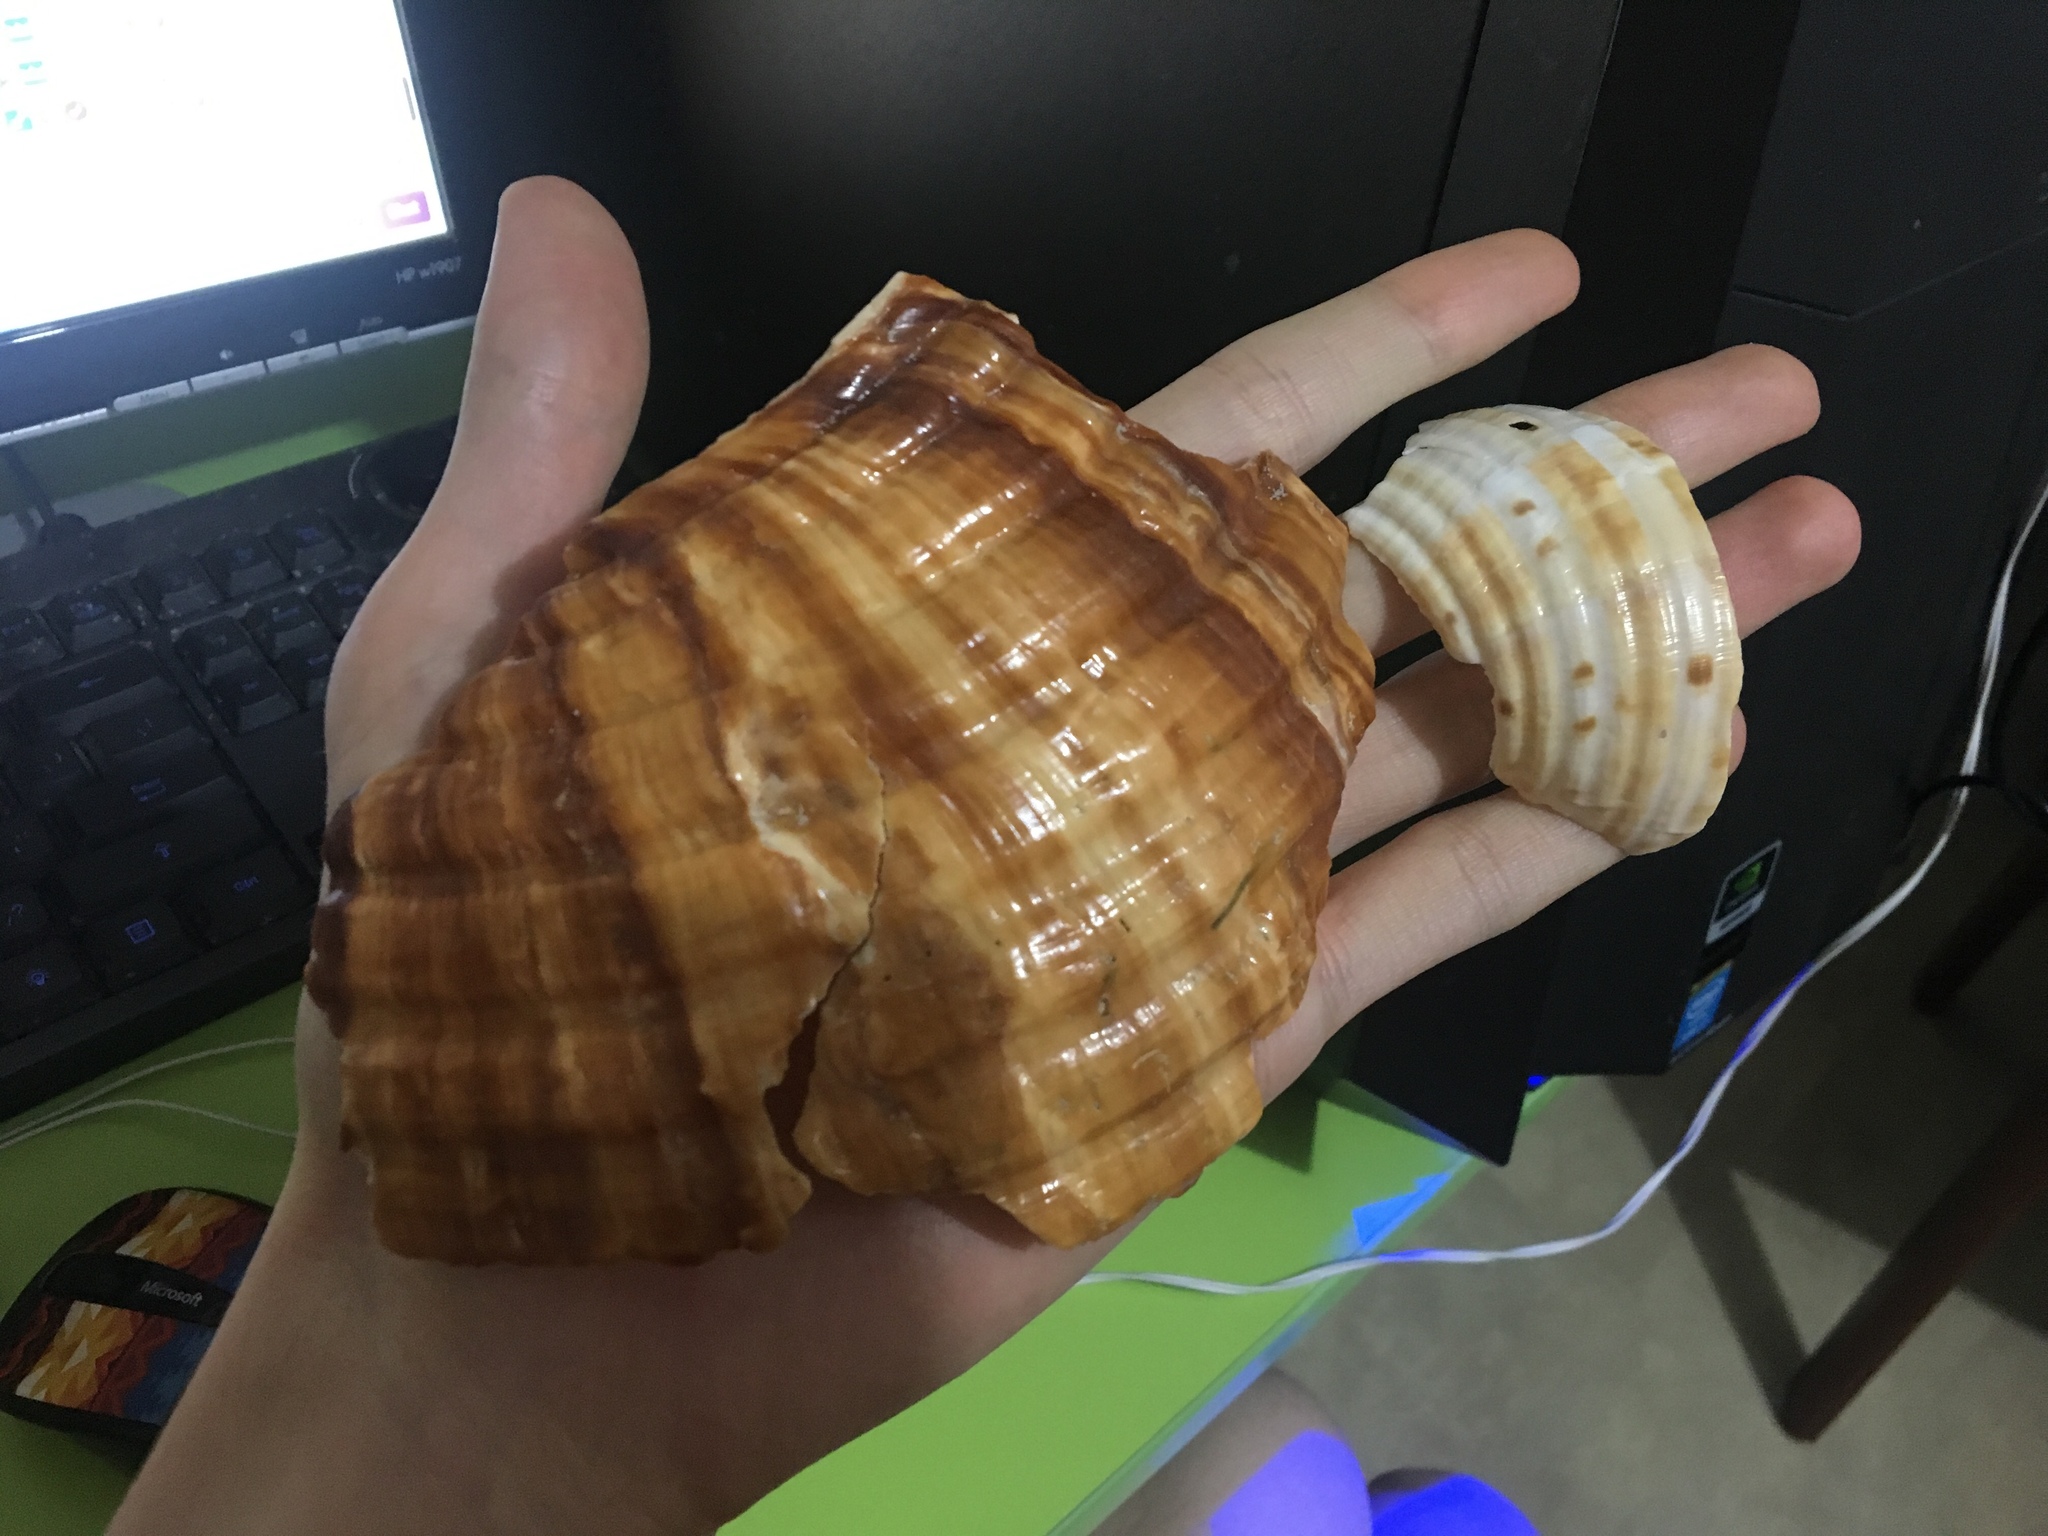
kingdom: Animalia
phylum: Mollusca
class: Gastropoda
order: Littorinimorpha
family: Tonnidae
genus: Tonna
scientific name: Tonna tankervillii
